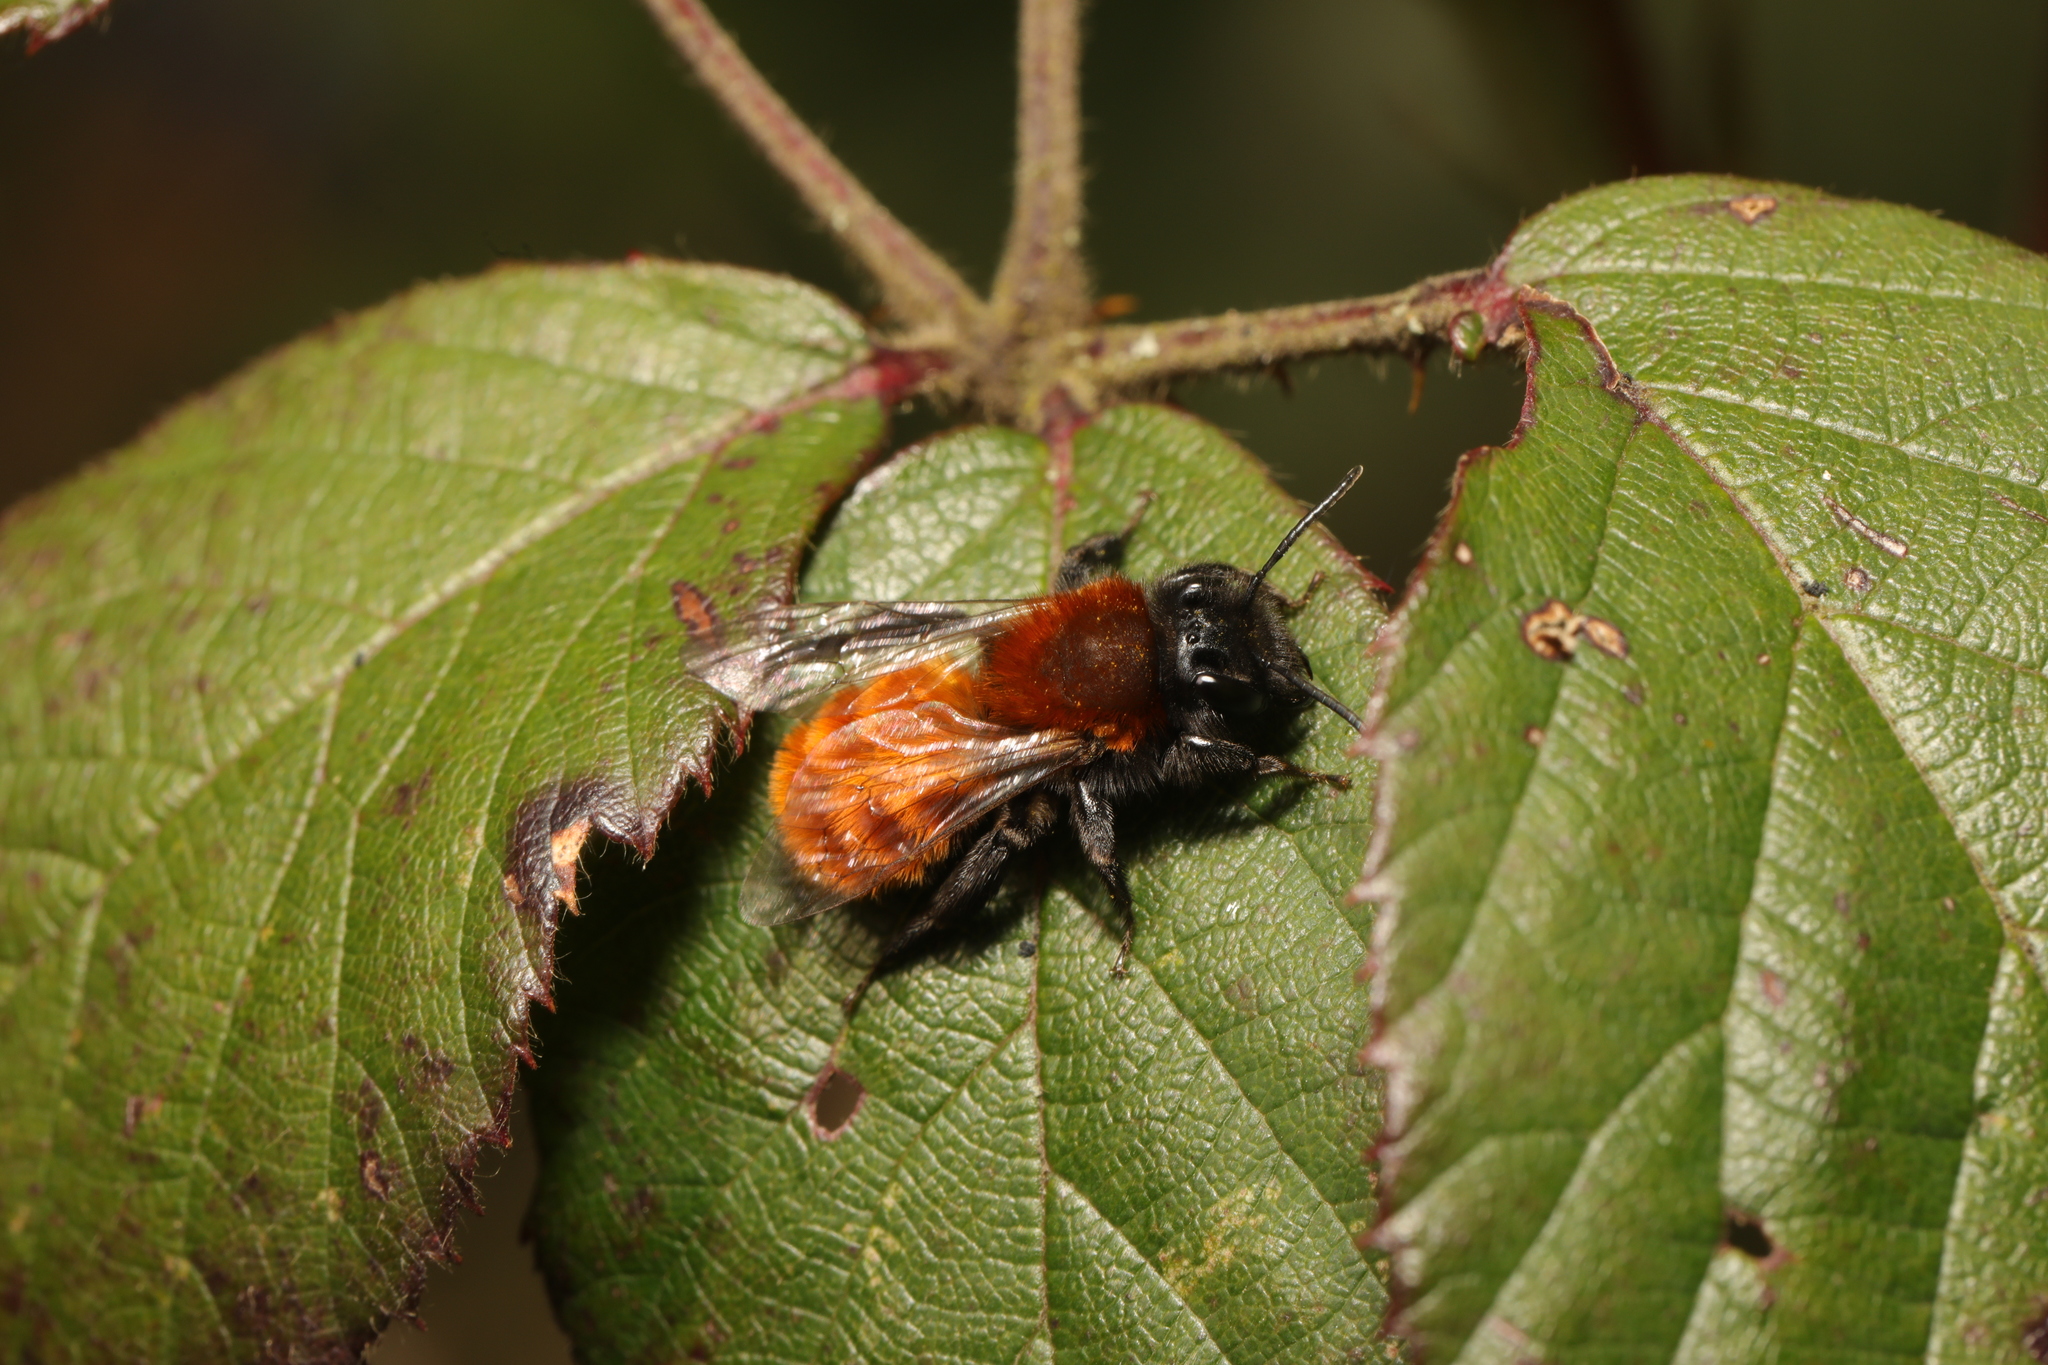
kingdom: Animalia
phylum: Arthropoda
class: Insecta
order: Hymenoptera
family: Andrenidae
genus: Andrena
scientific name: Andrena fulva
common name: Tawny mining bee
